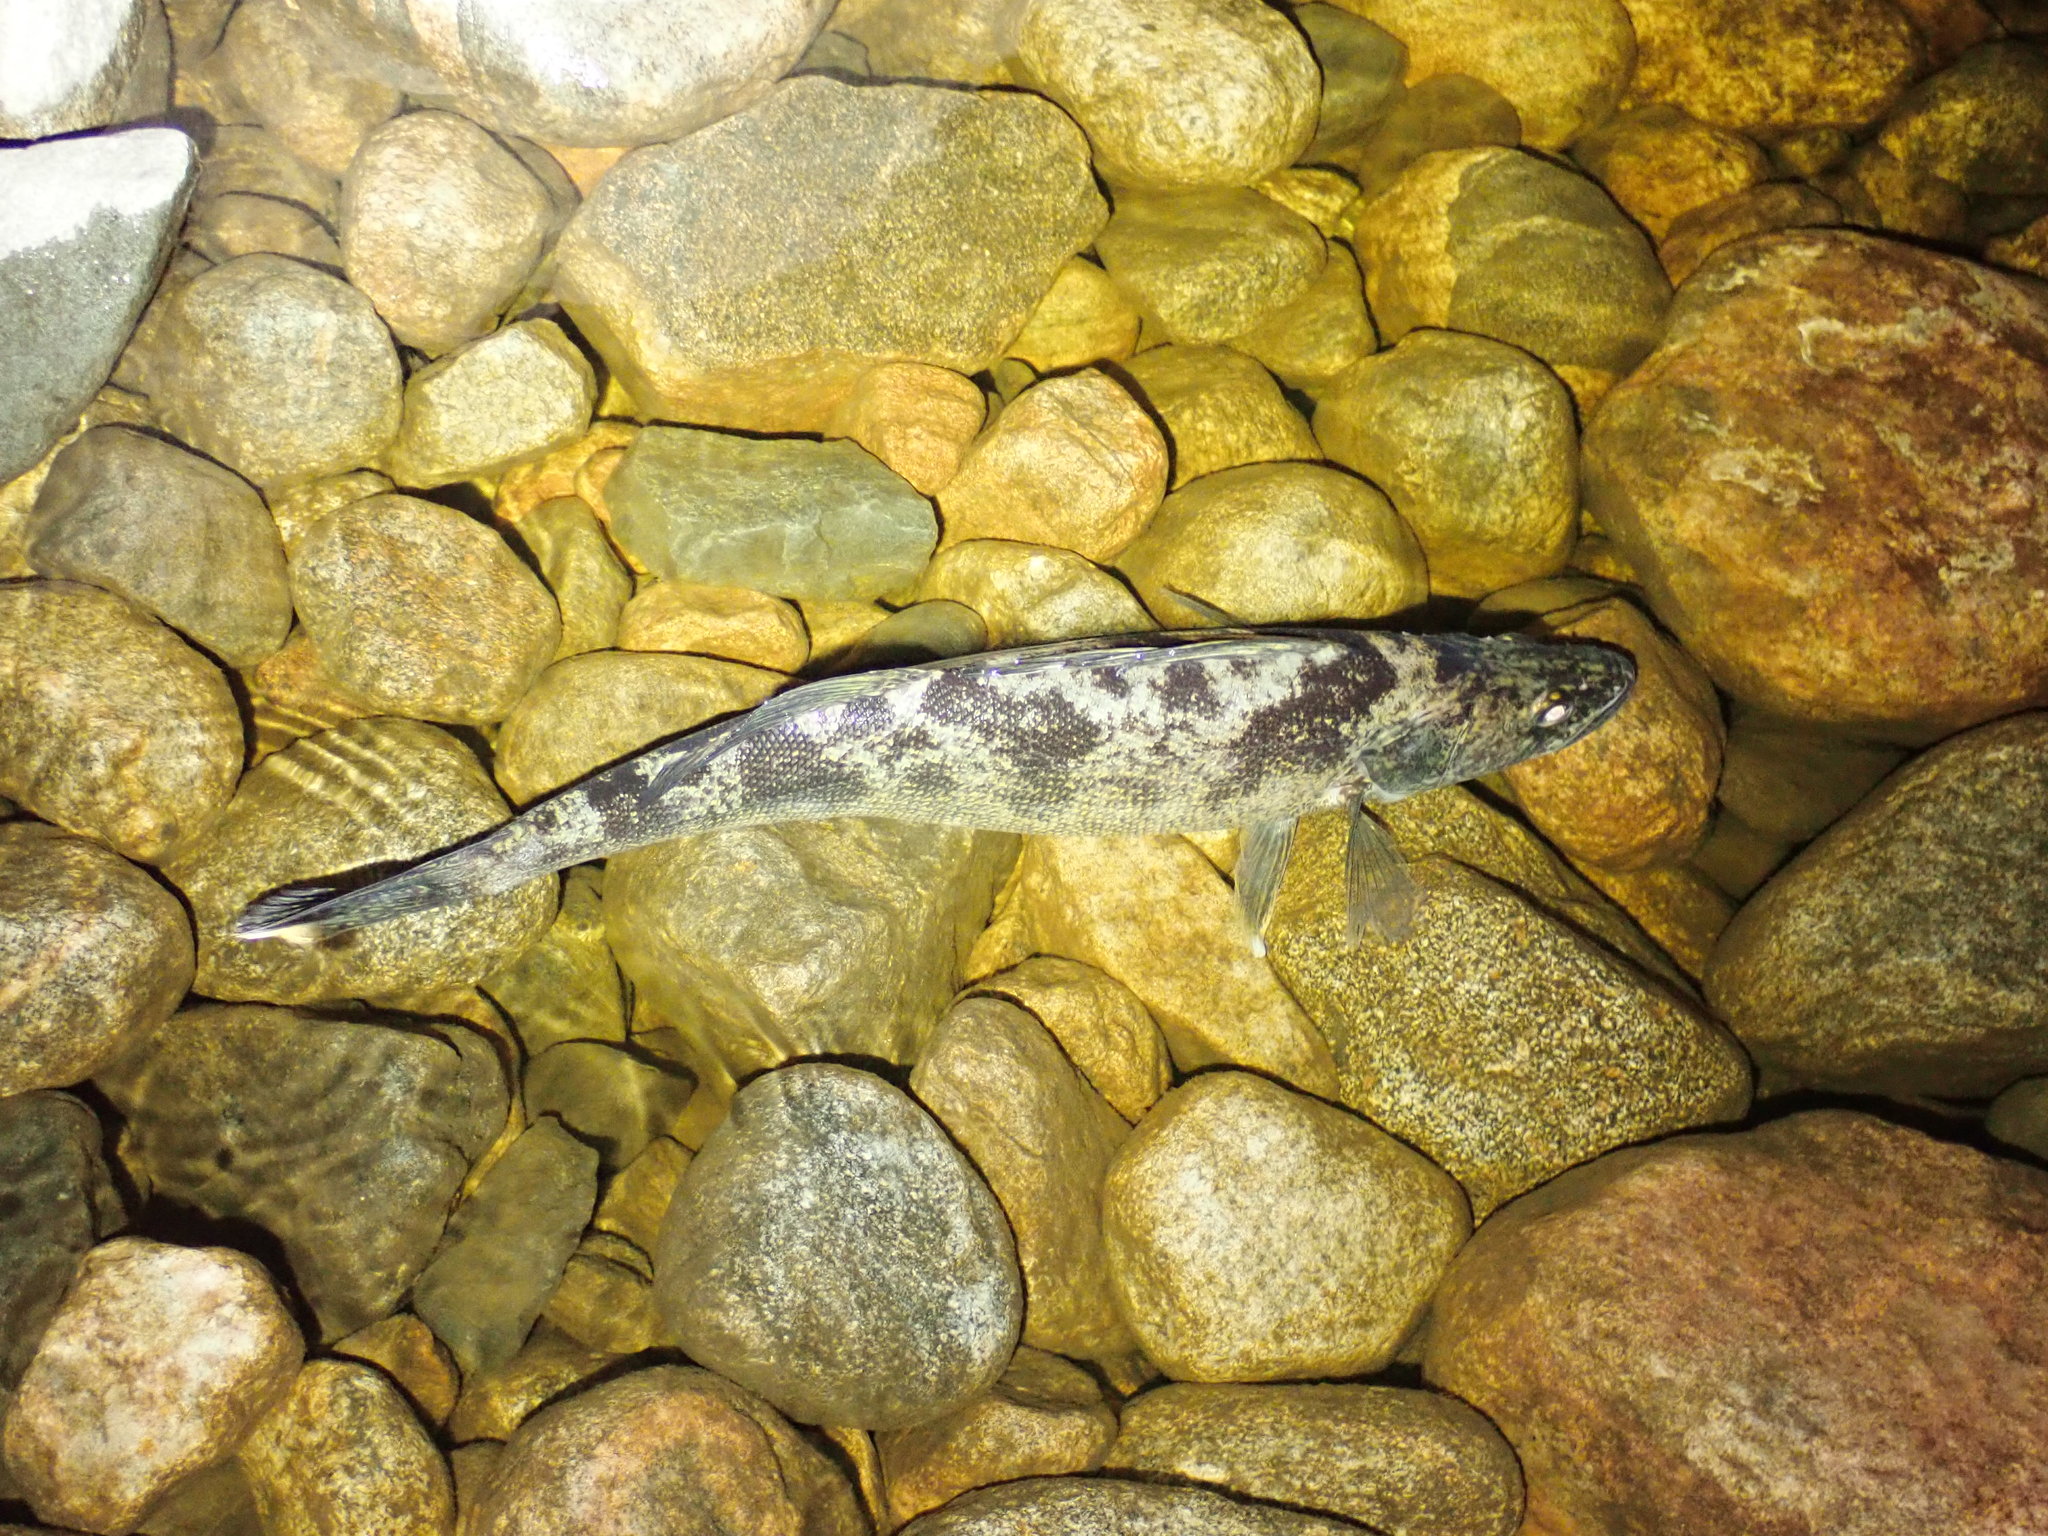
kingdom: Animalia
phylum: Chordata
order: Perciformes
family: Percidae
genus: Sander
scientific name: Sander vitreus
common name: Walleye
